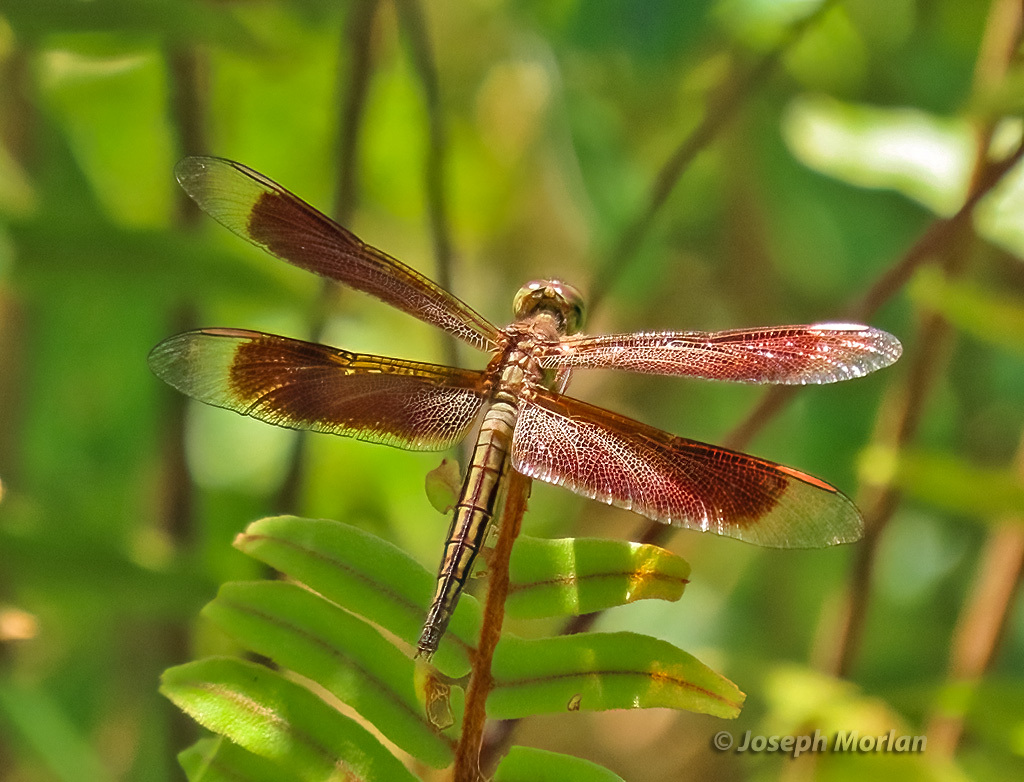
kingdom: Animalia
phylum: Arthropoda
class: Insecta
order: Odonata
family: Libellulidae
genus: Neurothemis
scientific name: Neurothemis manadensis
